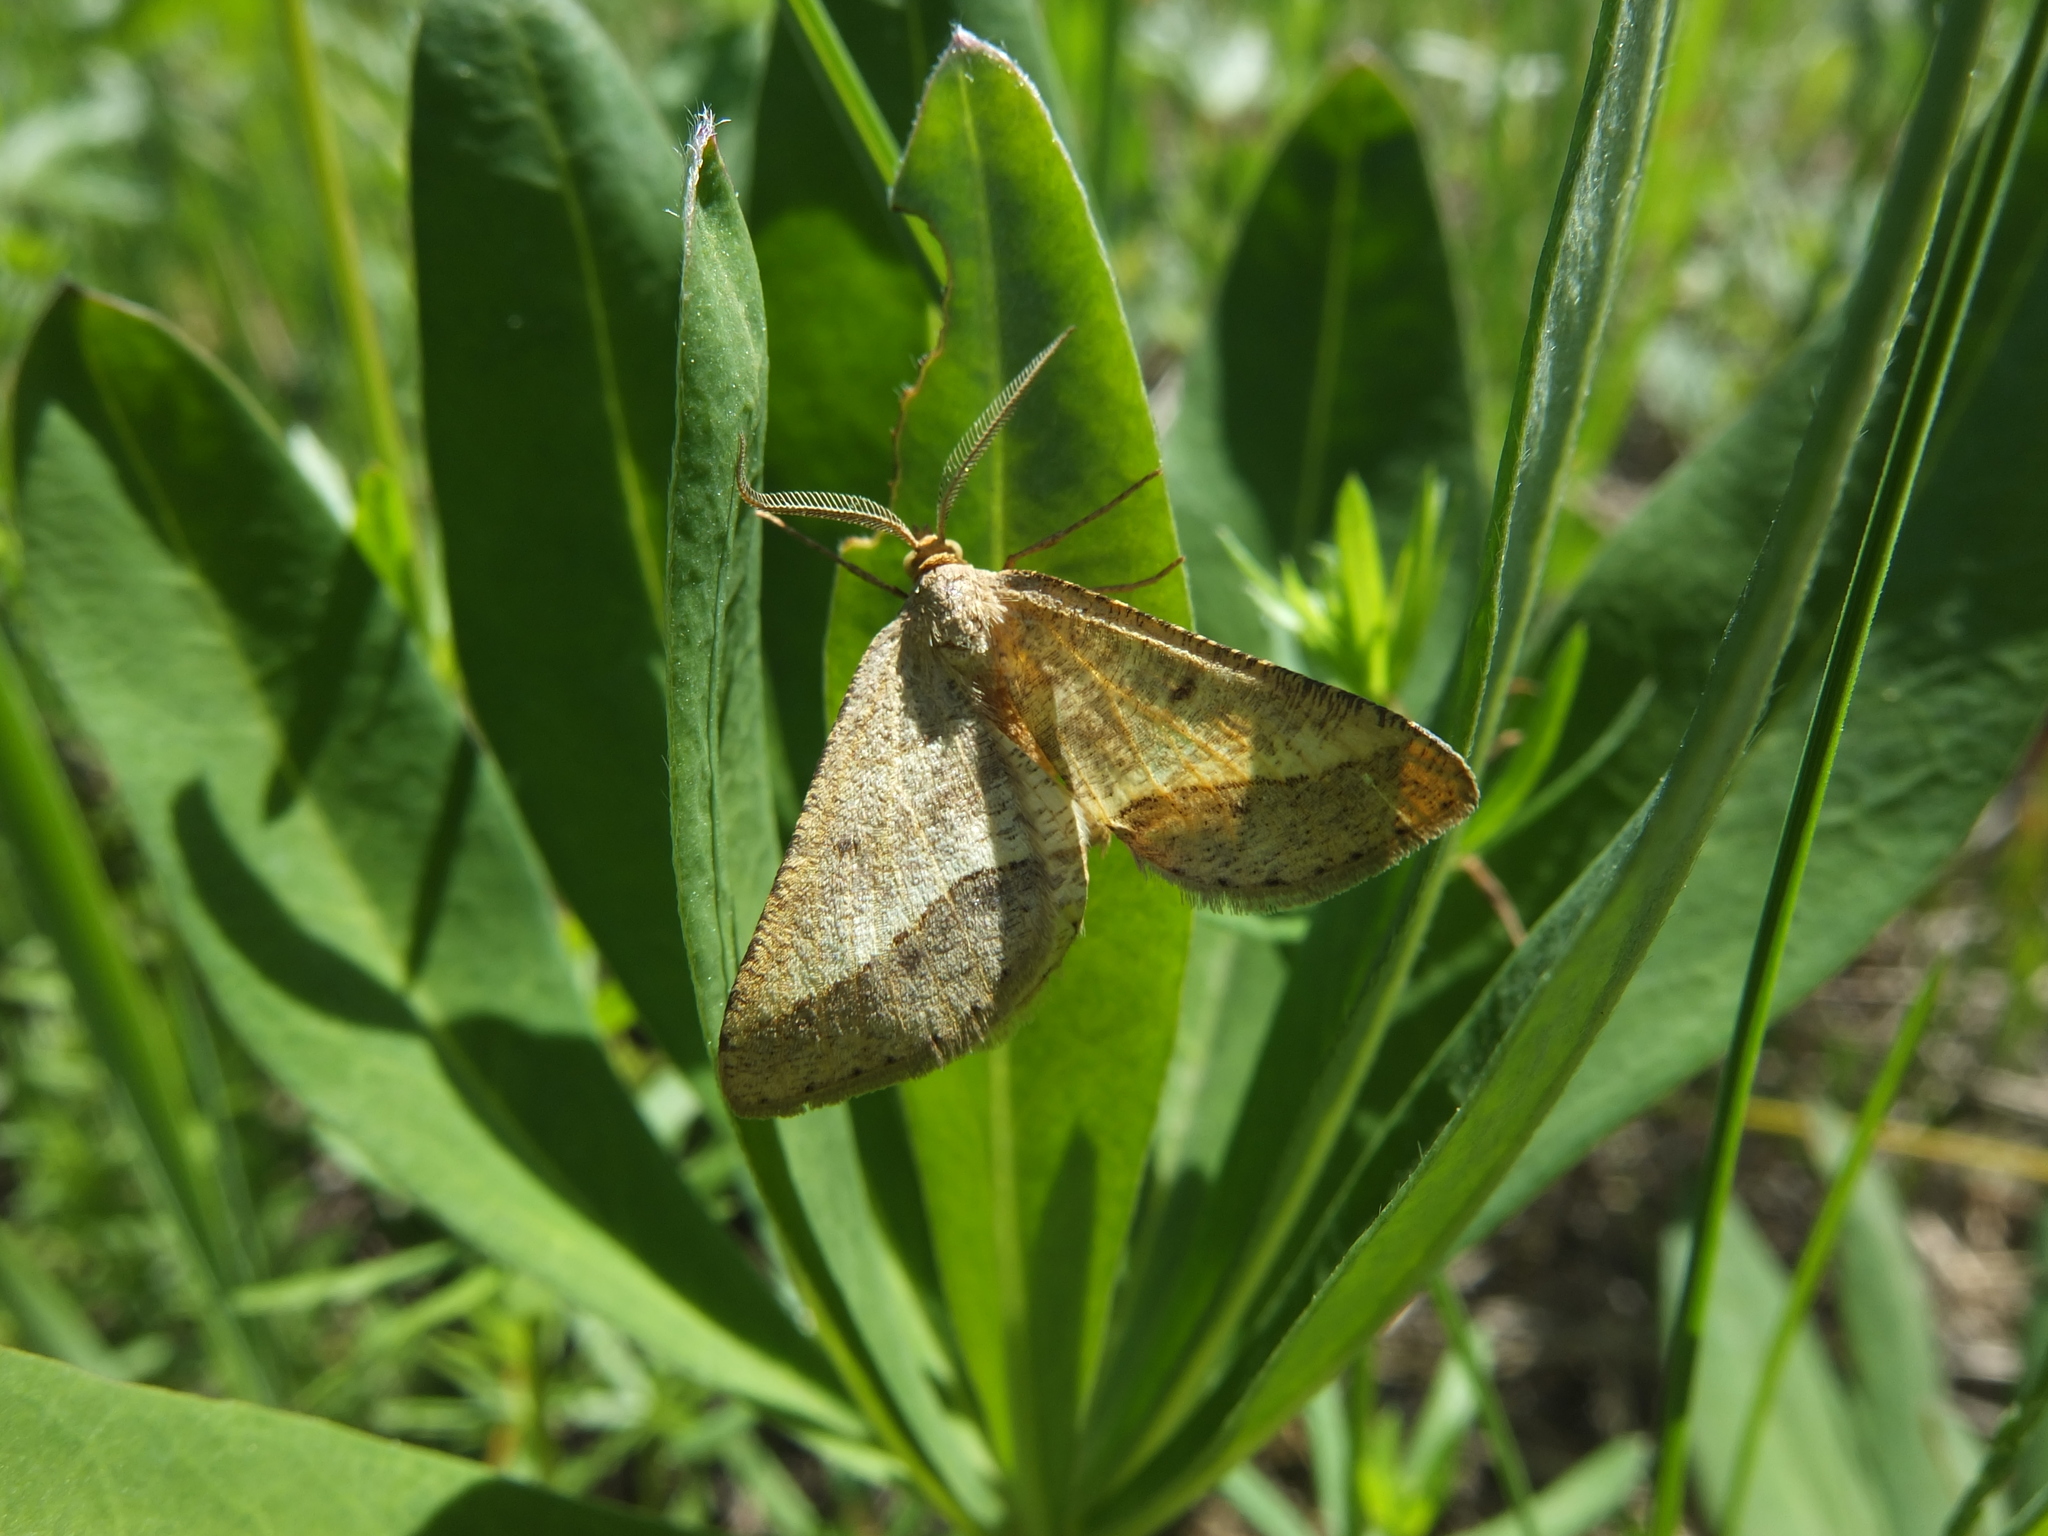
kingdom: Animalia
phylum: Arthropoda
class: Insecta
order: Lepidoptera
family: Geometridae
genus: Tephrina
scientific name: Tephrina arenacearia
